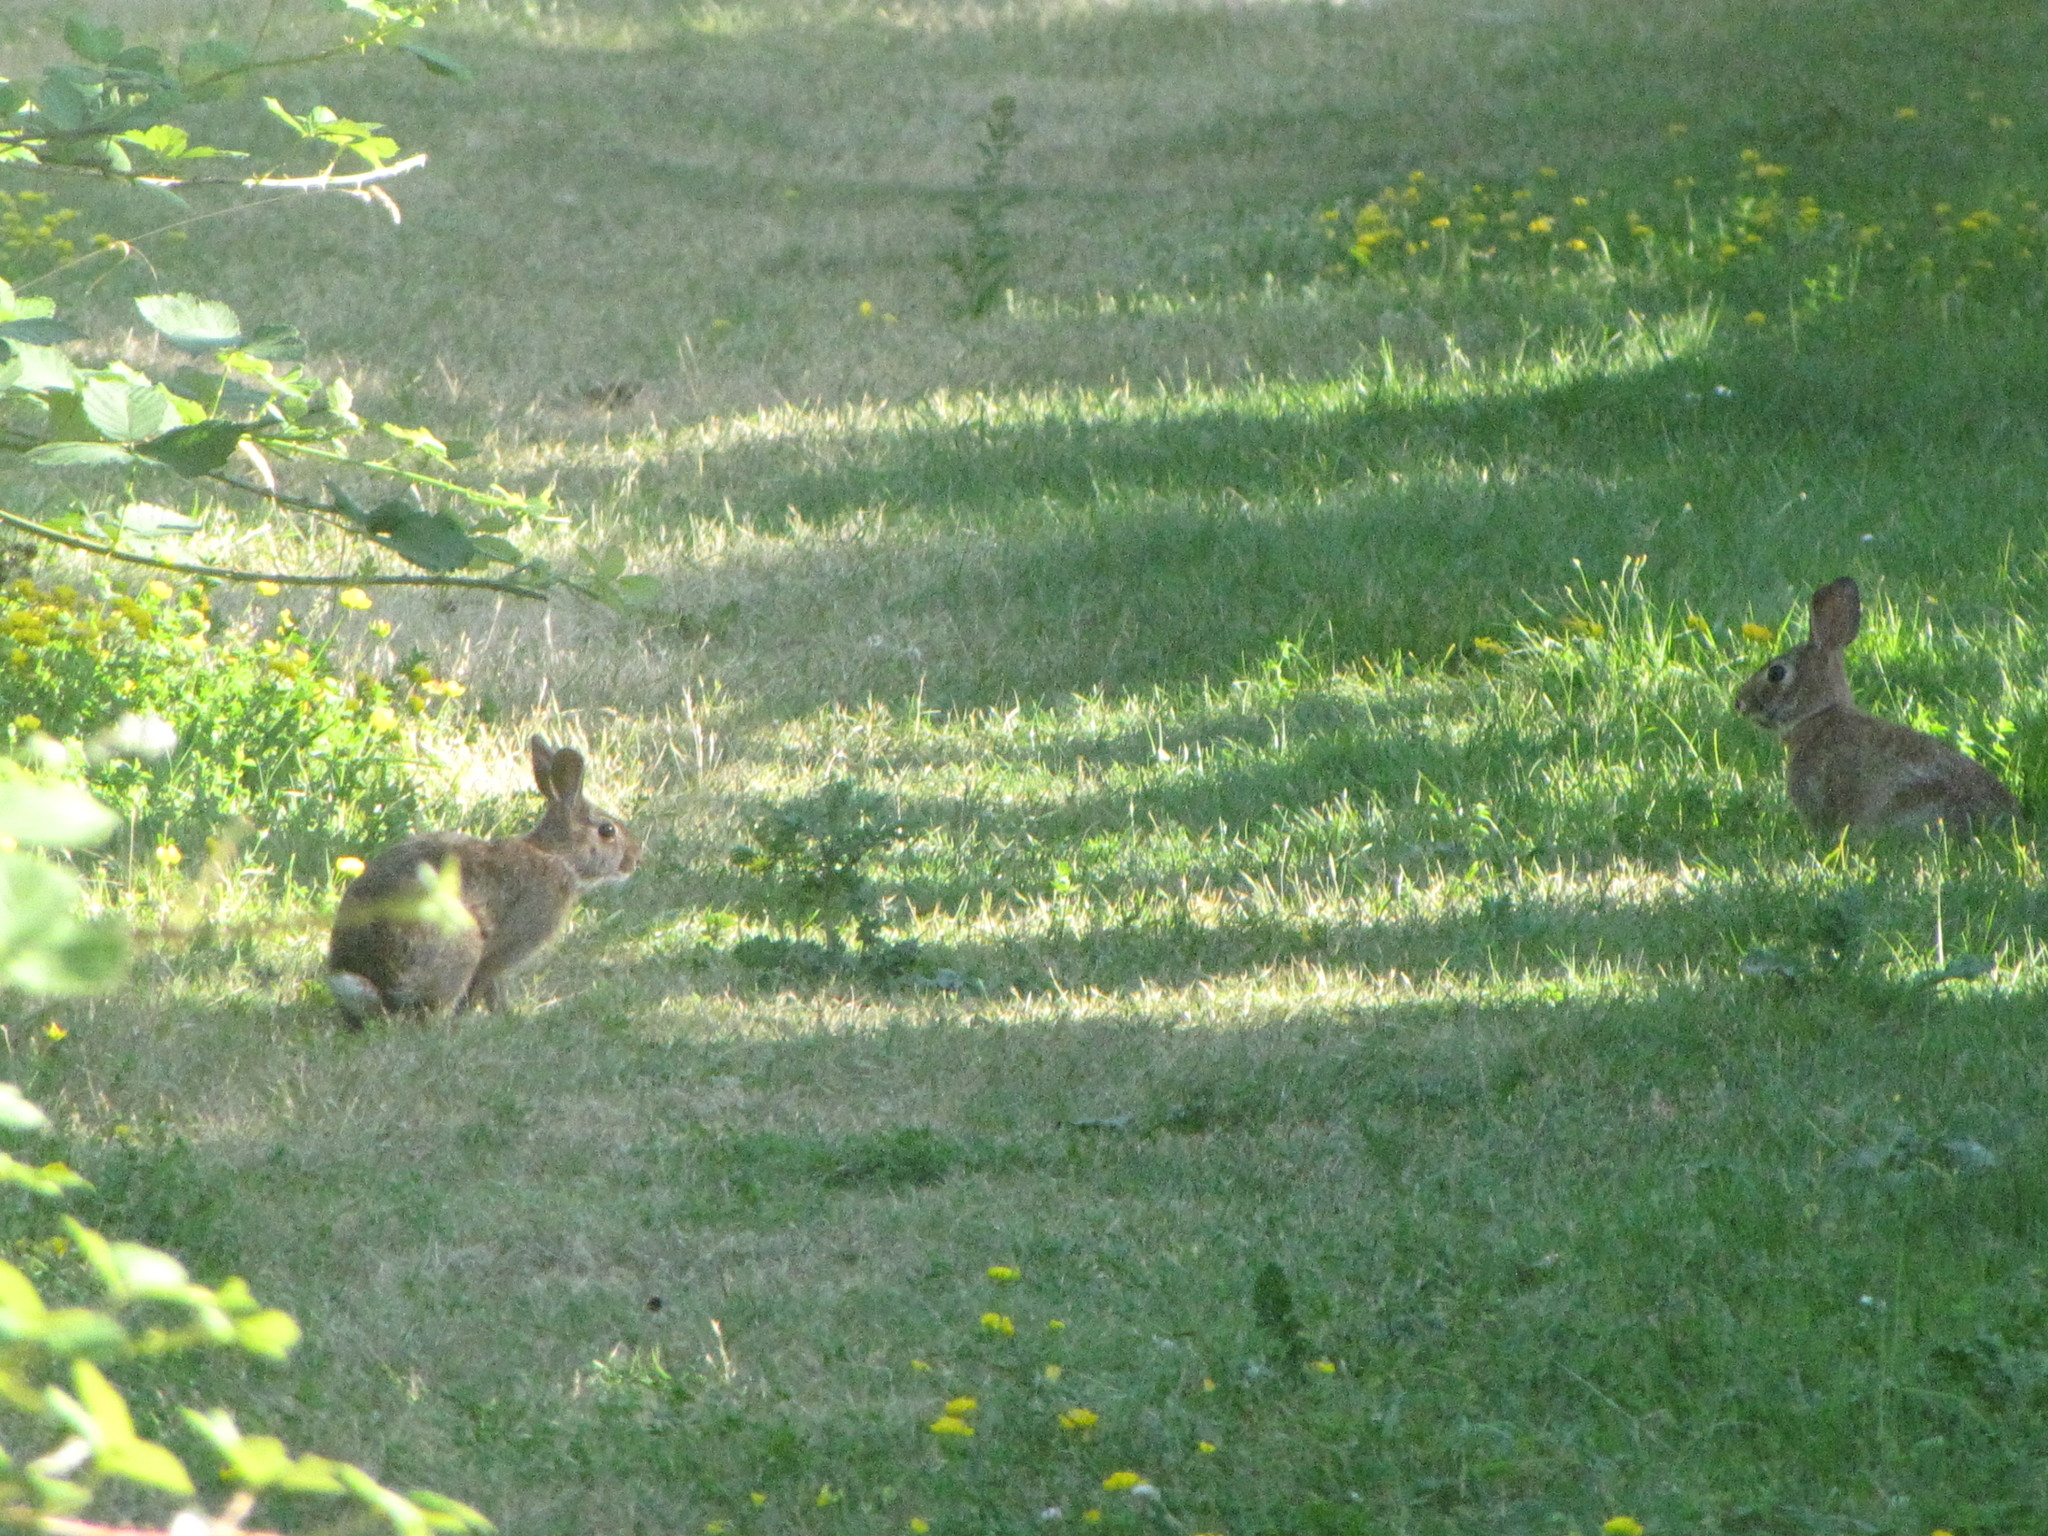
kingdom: Animalia
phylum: Chordata
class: Mammalia
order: Lagomorpha
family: Leporidae
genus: Sylvilagus
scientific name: Sylvilagus floridanus
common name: Eastern cottontail
